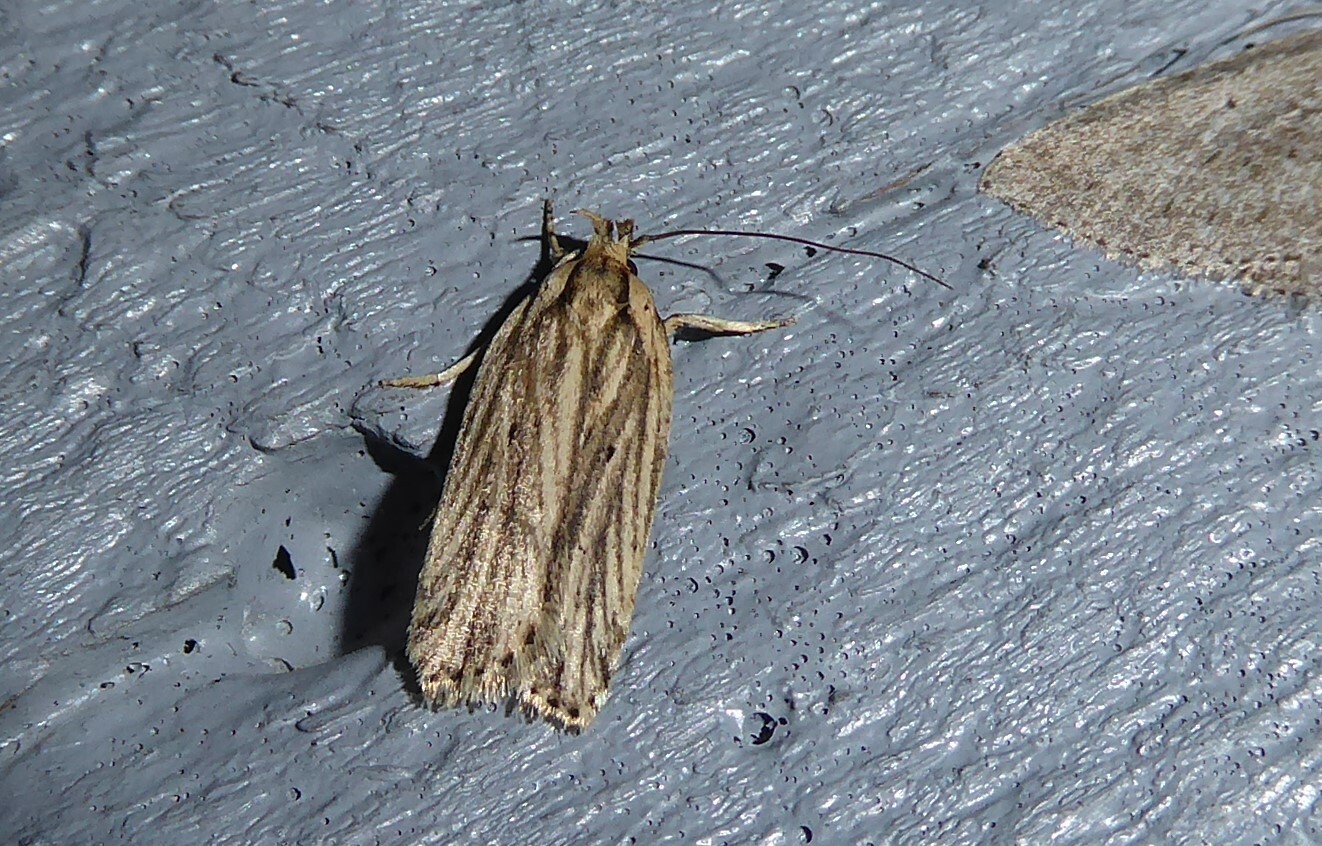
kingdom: Animalia
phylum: Arthropoda
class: Insecta
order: Lepidoptera
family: Depressariidae
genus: Agonopterix
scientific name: Agonopterix
